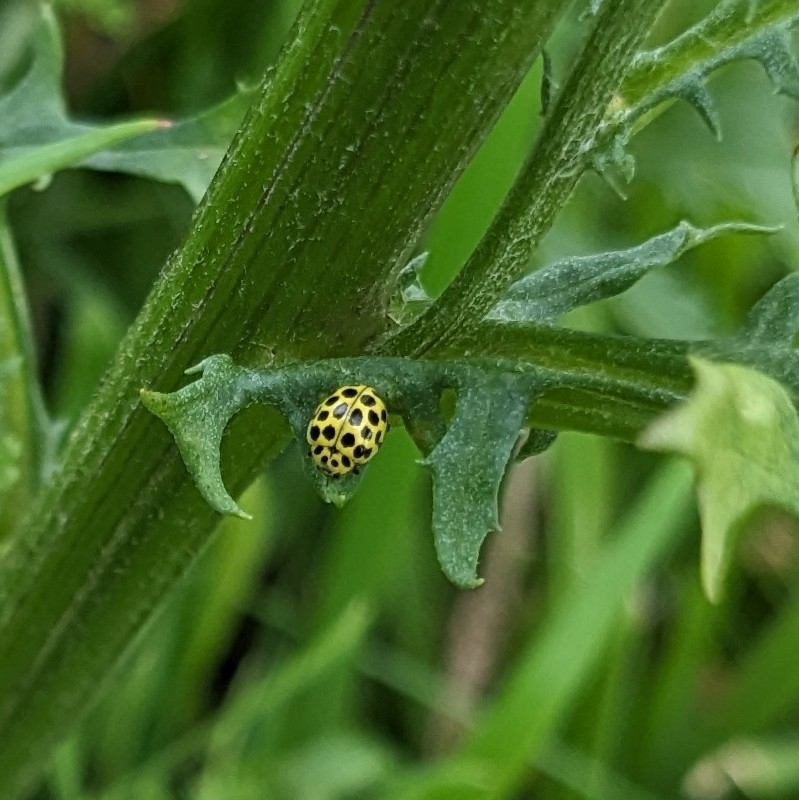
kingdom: Animalia
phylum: Arthropoda
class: Insecta
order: Coleoptera
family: Coccinellidae
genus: Psyllobora
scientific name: Psyllobora vigintiduopunctata
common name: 22-spot ladybird
